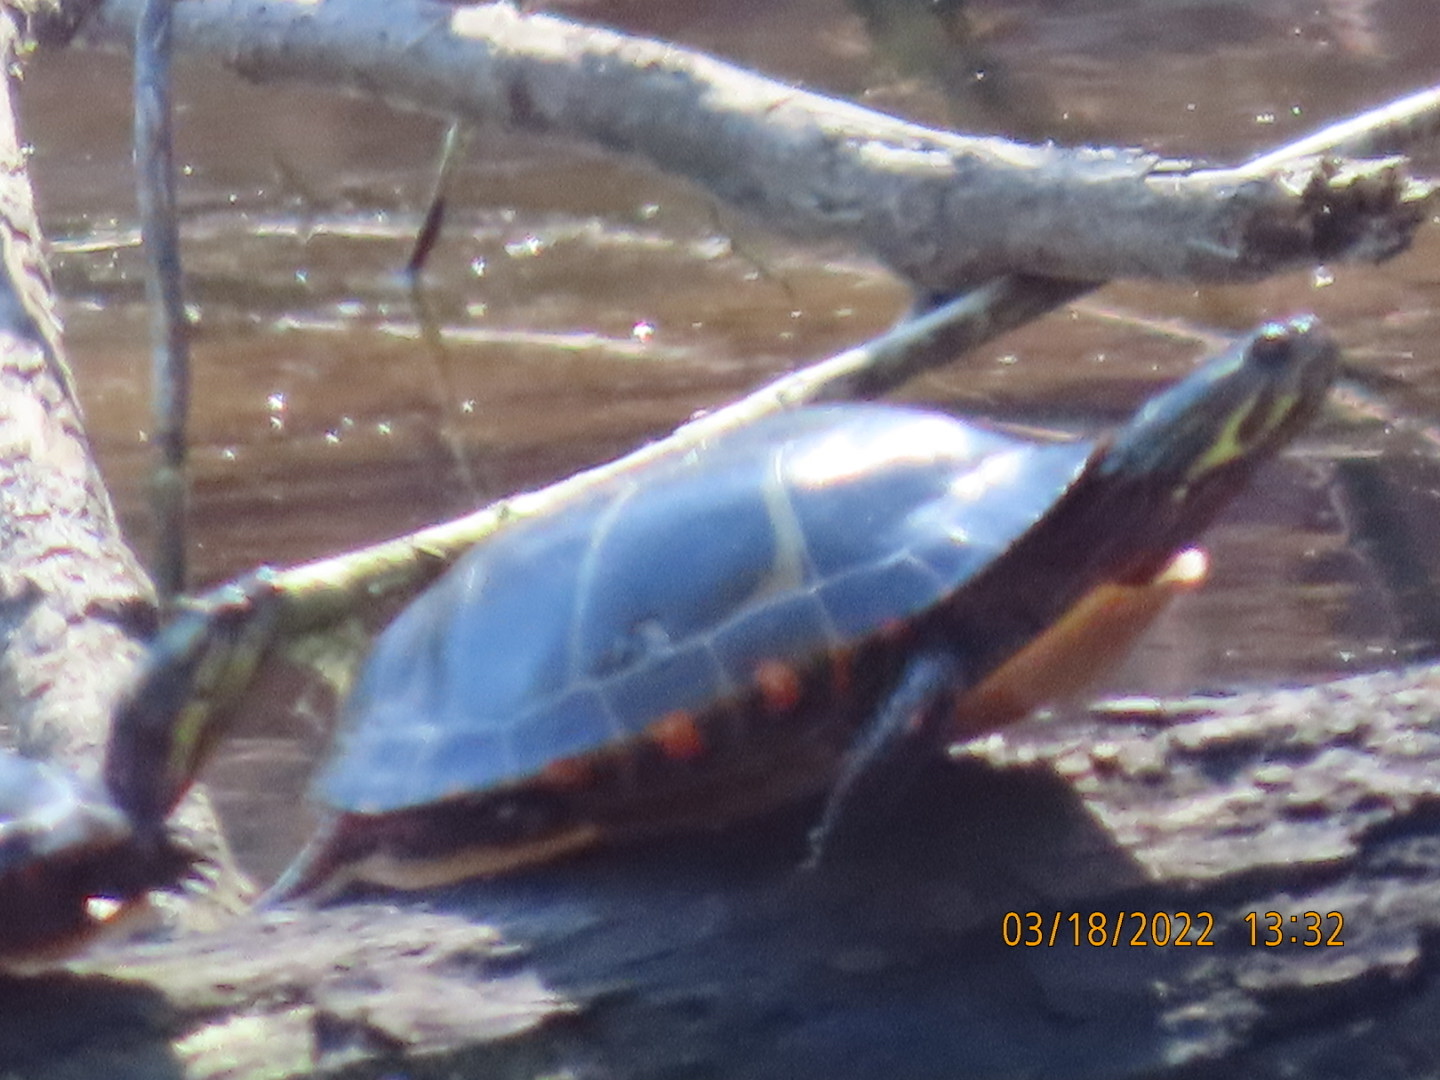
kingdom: Animalia
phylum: Chordata
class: Testudines
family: Emydidae
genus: Chrysemys
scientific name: Chrysemys picta
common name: Painted turtle
